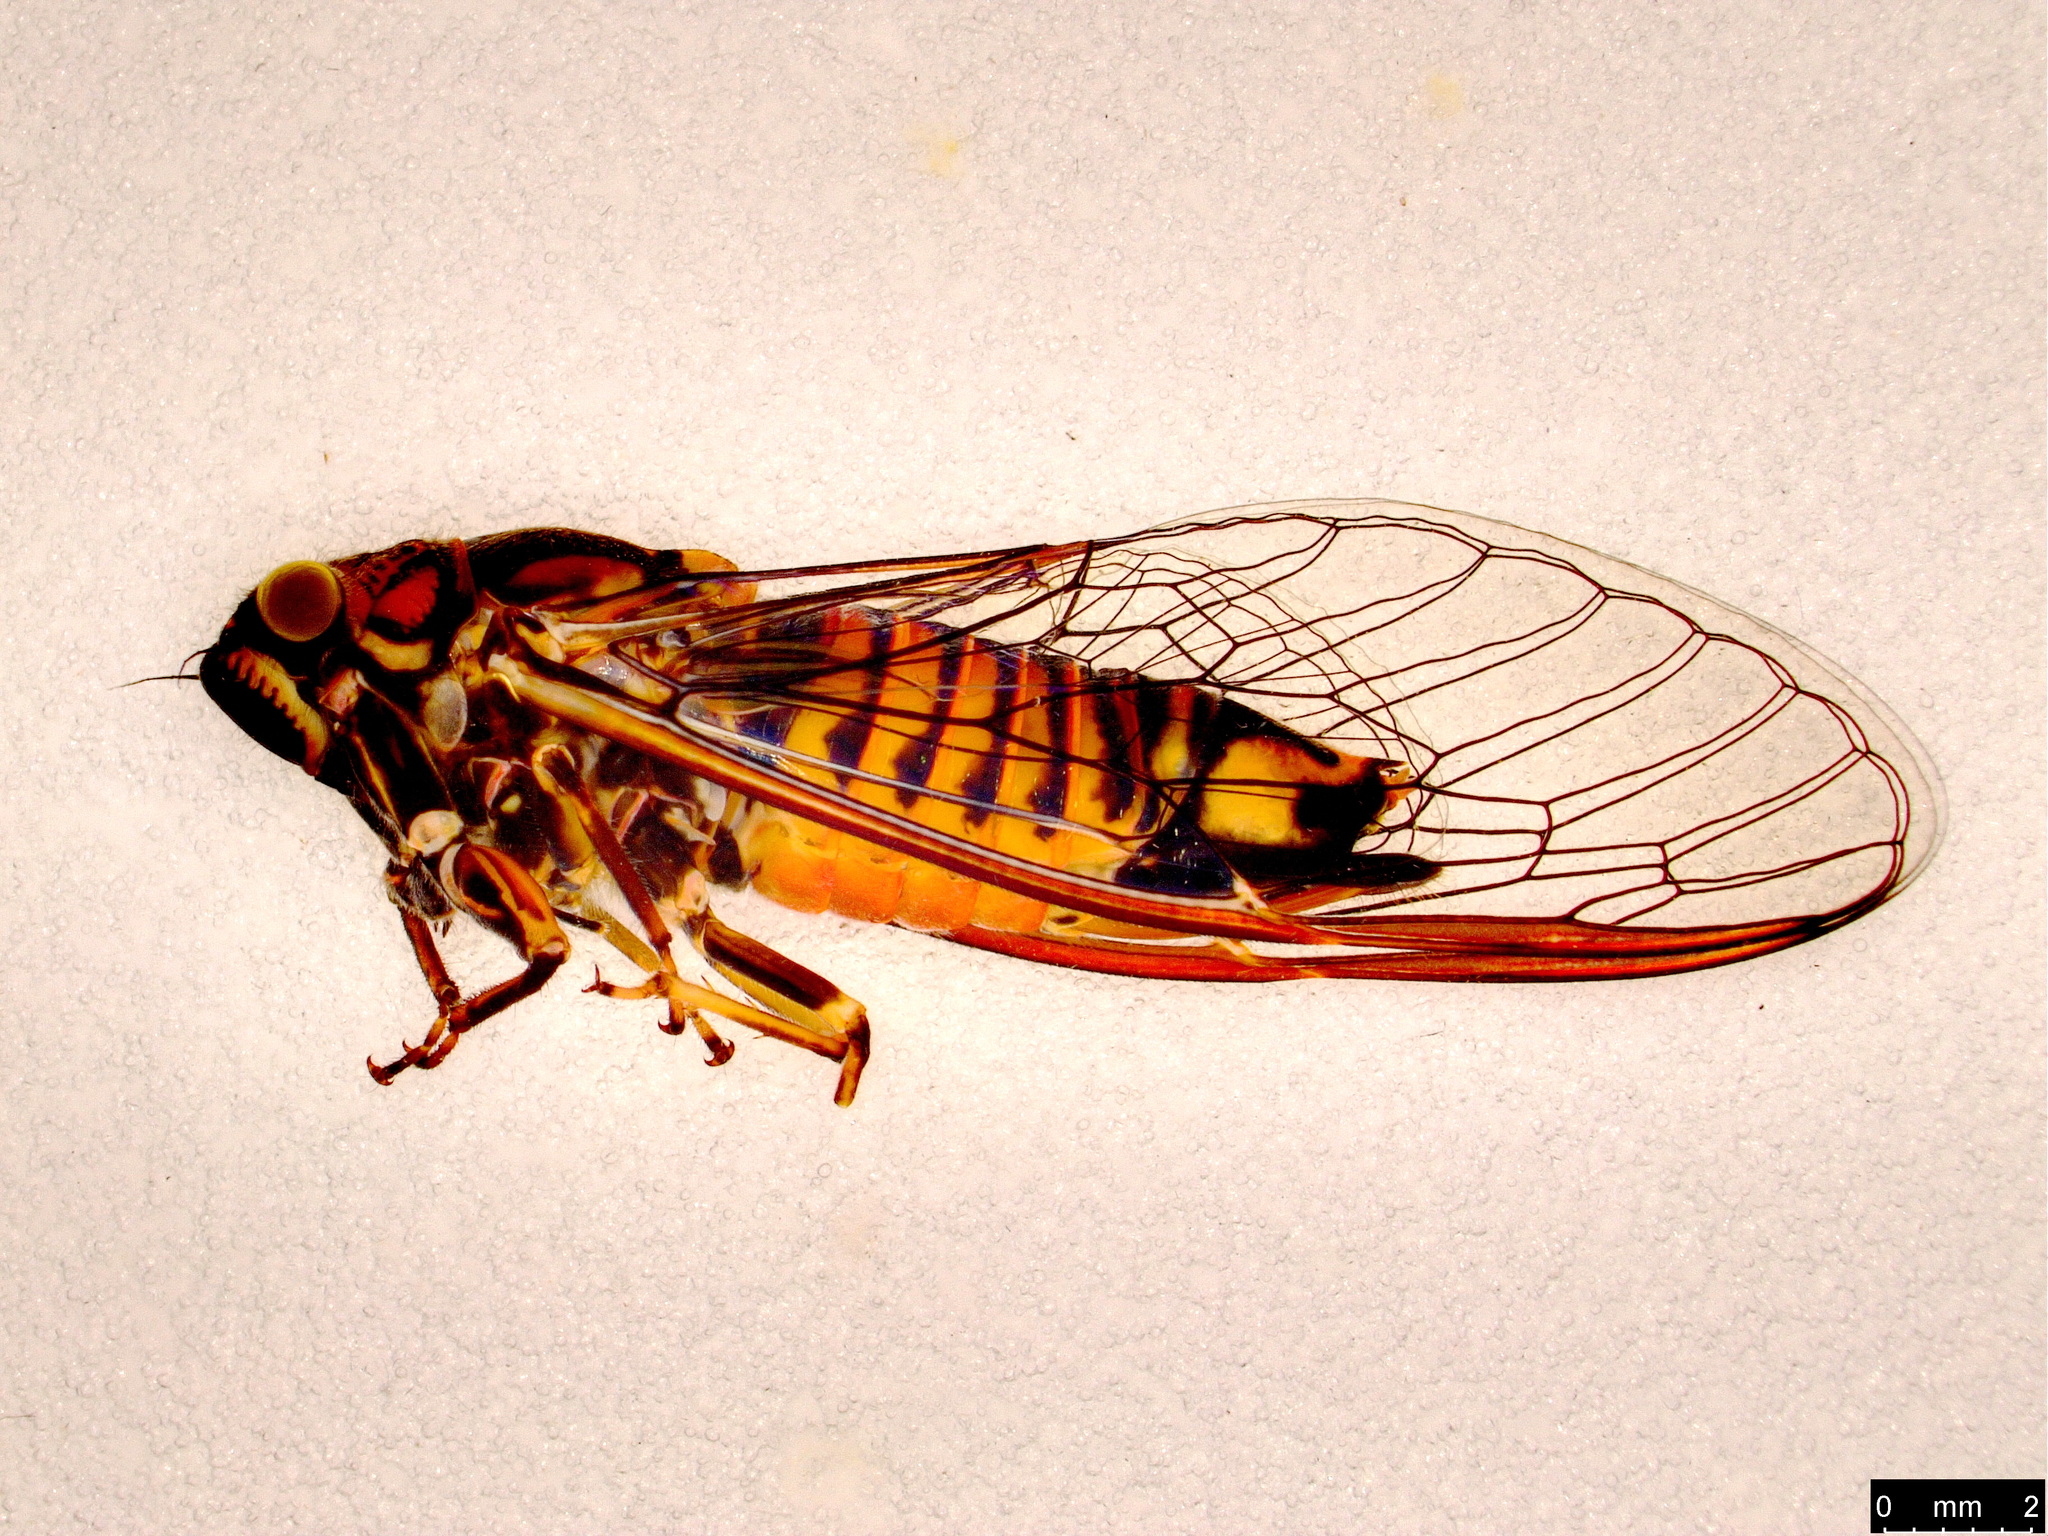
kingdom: Animalia
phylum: Arthropoda
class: Insecta
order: Hemiptera
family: Cicadidae
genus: Yoyetta
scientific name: Yoyetta robertsonae
